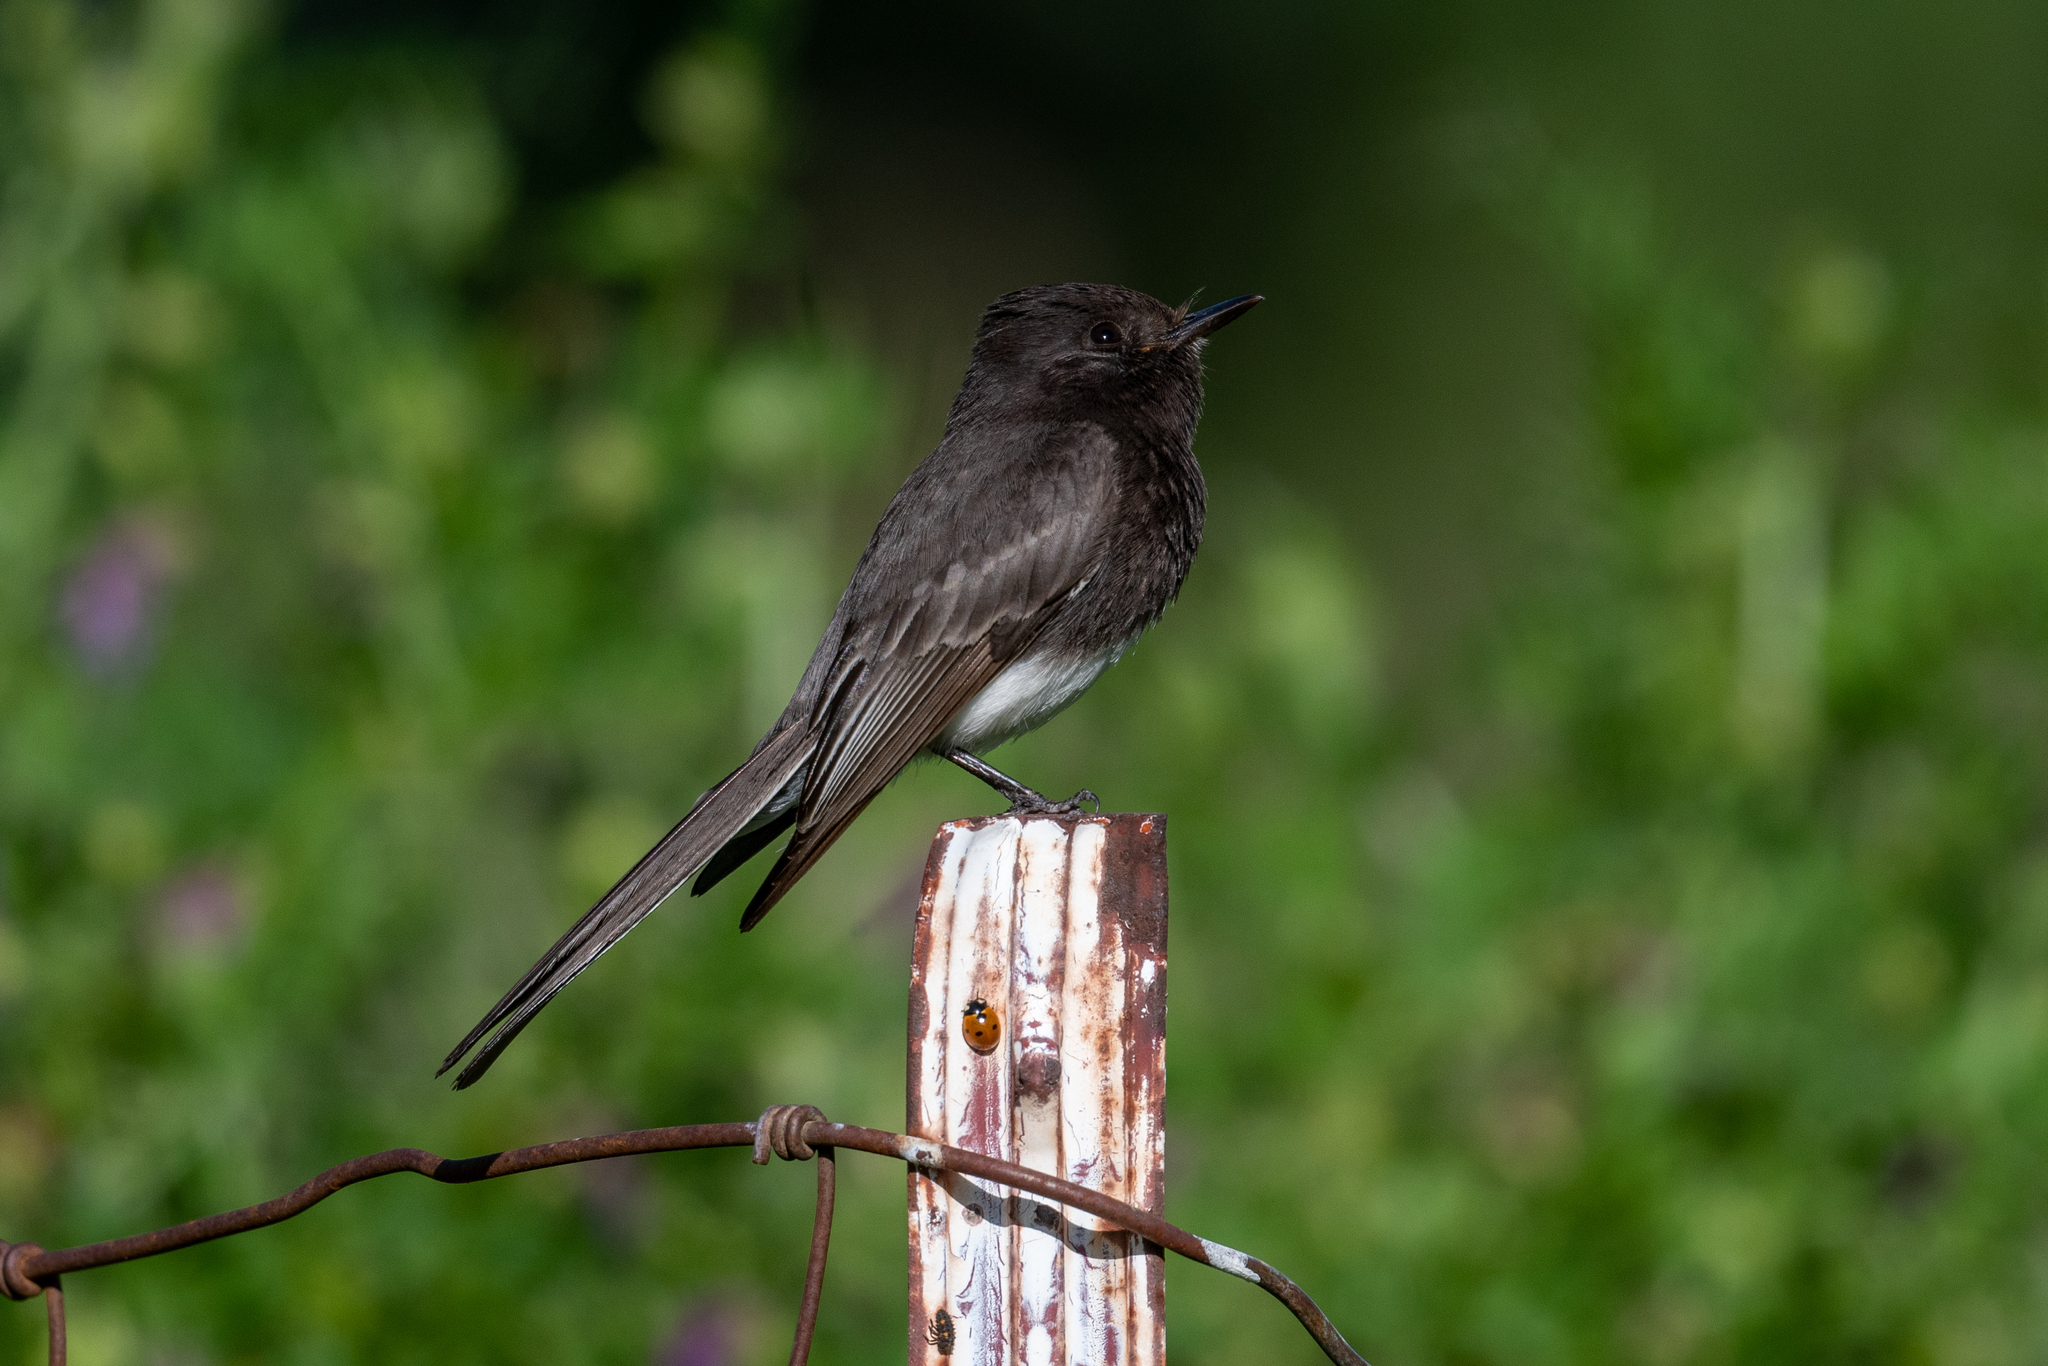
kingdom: Animalia
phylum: Chordata
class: Aves
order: Passeriformes
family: Tyrannidae
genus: Sayornis
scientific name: Sayornis nigricans
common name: Black phoebe
